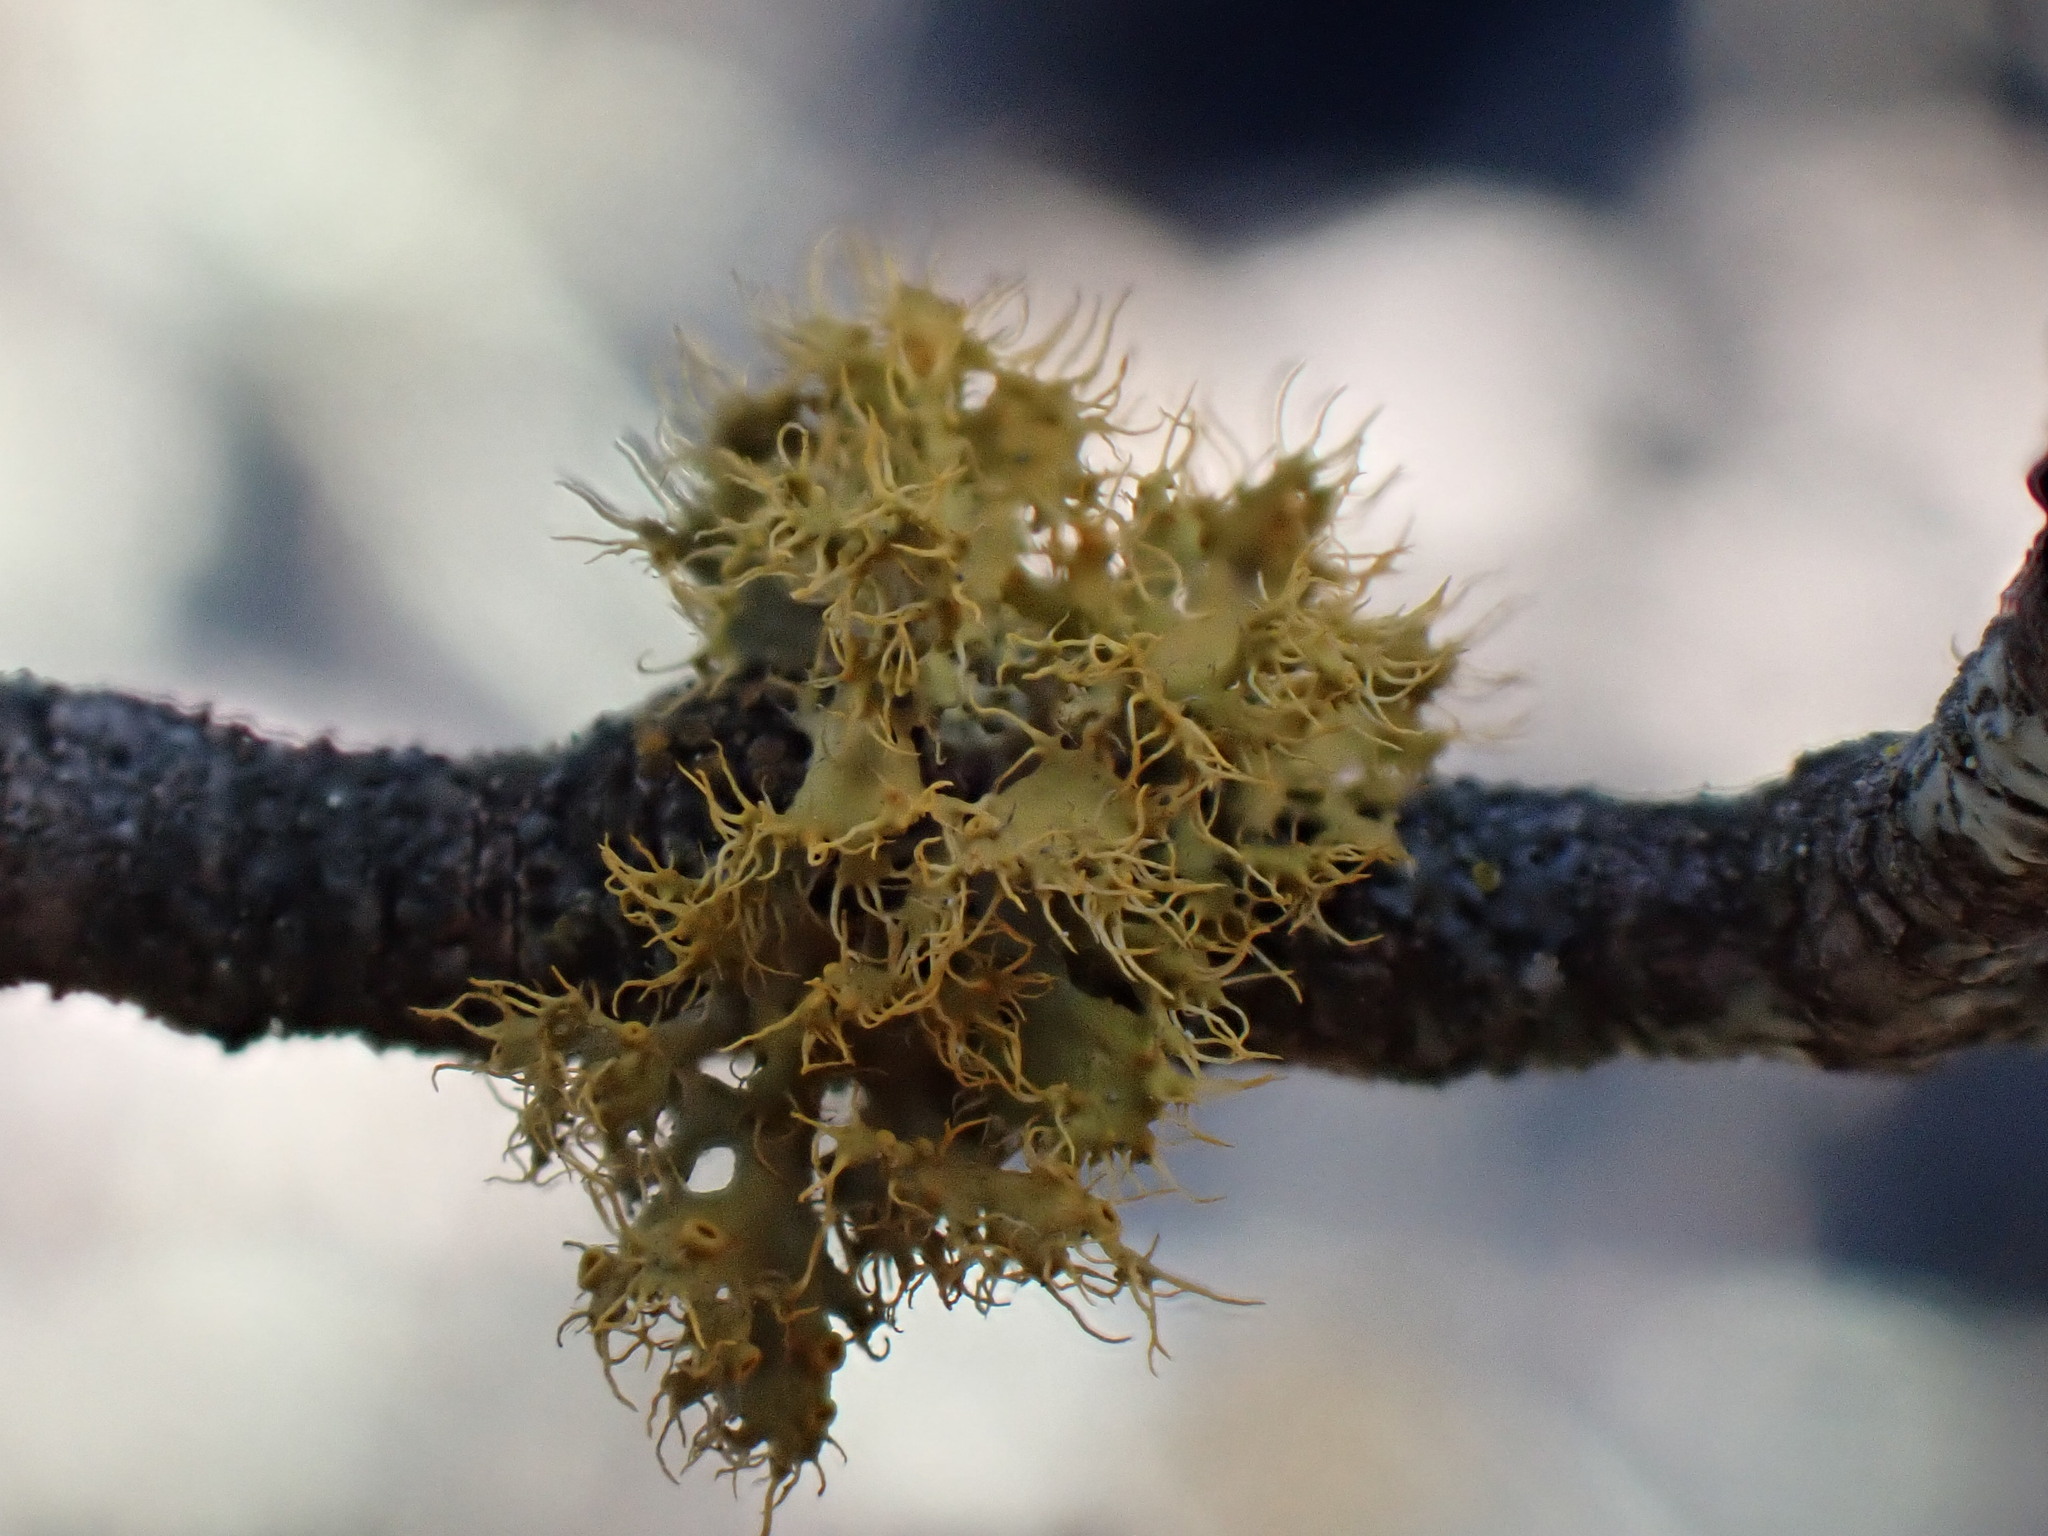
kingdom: Fungi
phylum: Ascomycota
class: Lecanoromycetes
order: Teloschistales
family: Teloschistaceae
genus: Niorma
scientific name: Niorma chrysophthalma
